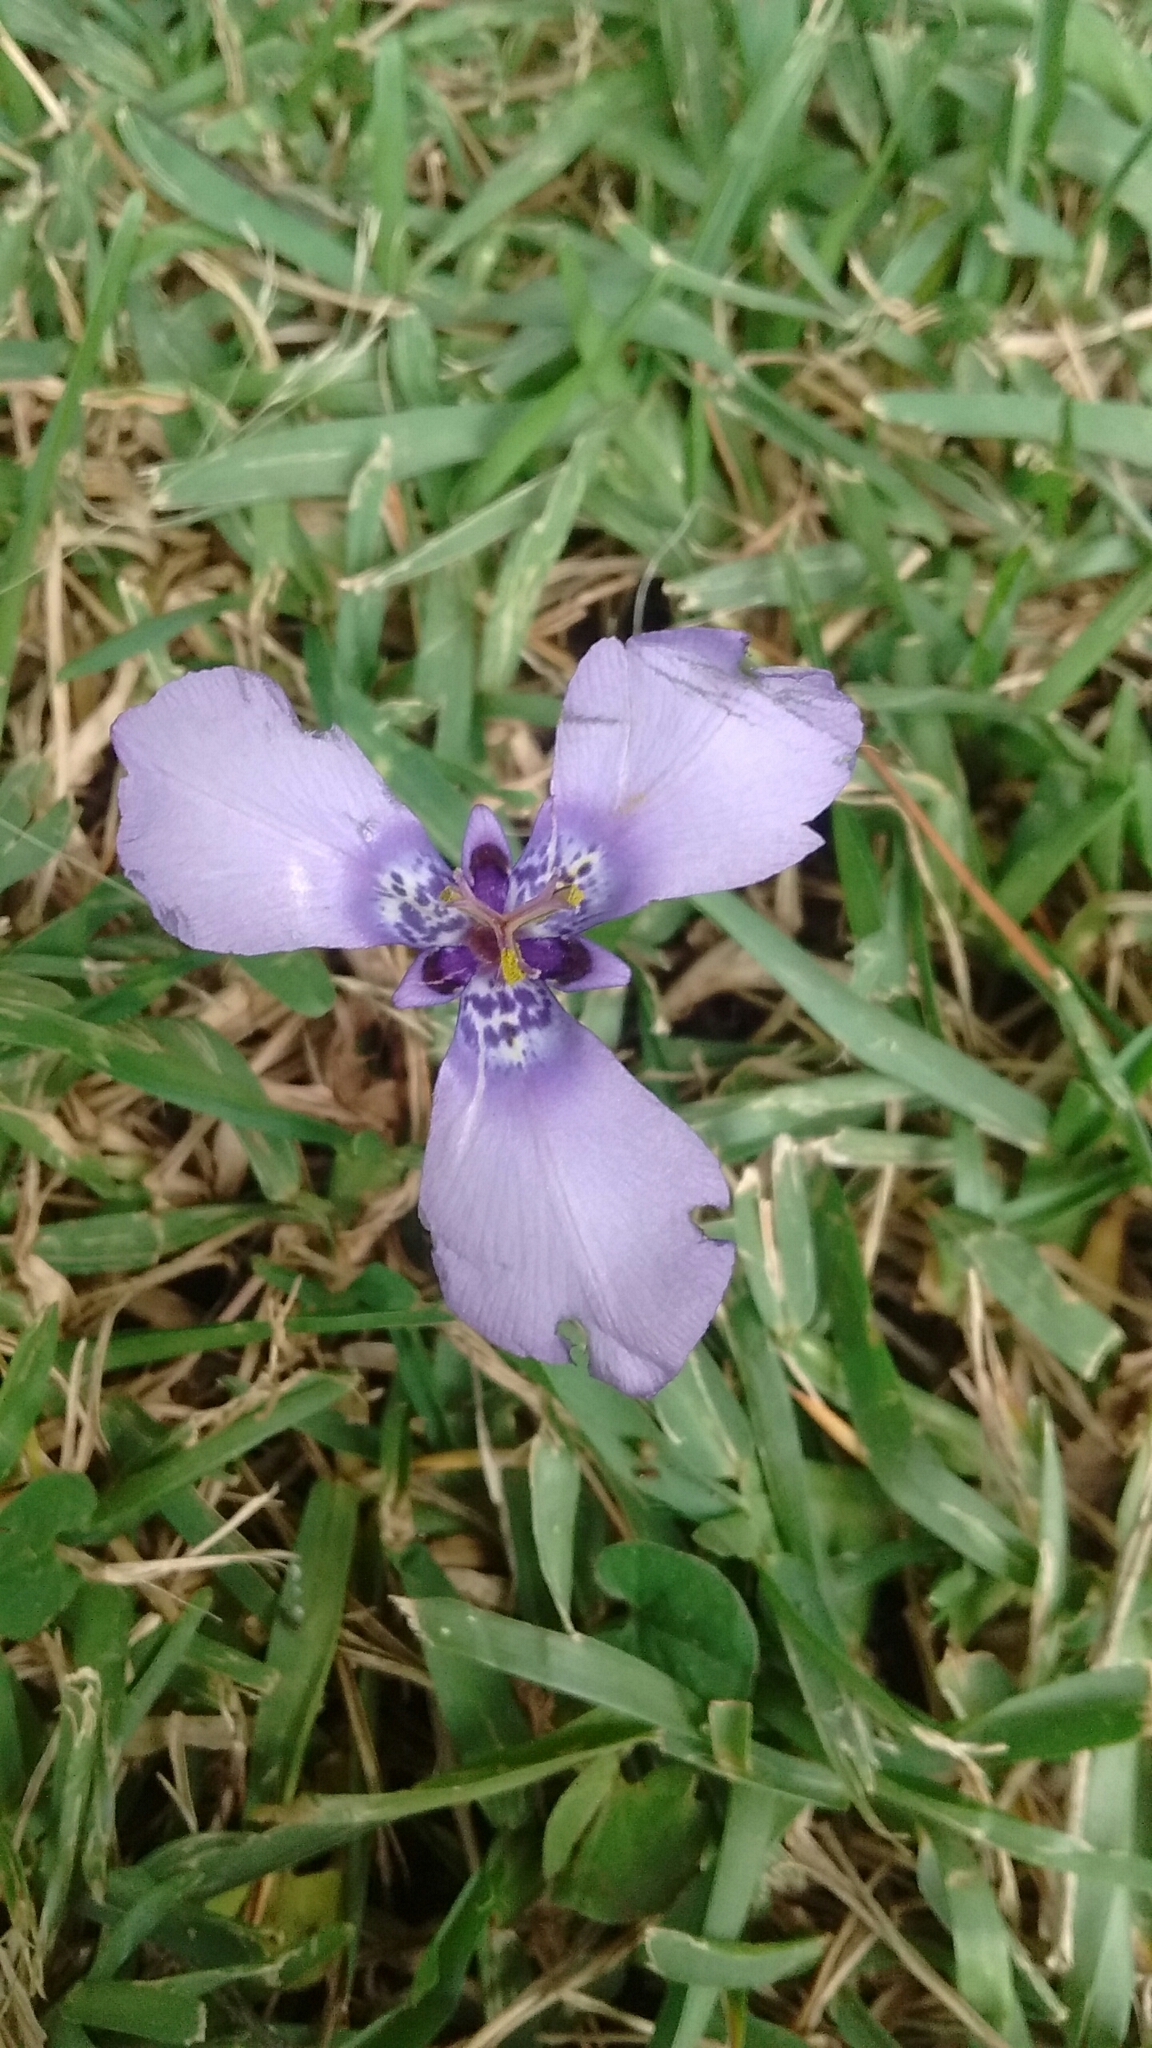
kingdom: Plantae
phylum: Tracheophyta
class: Liliopsida
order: Asparagales
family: Iridaceae
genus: Herbertia
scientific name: Herbertia lahue
